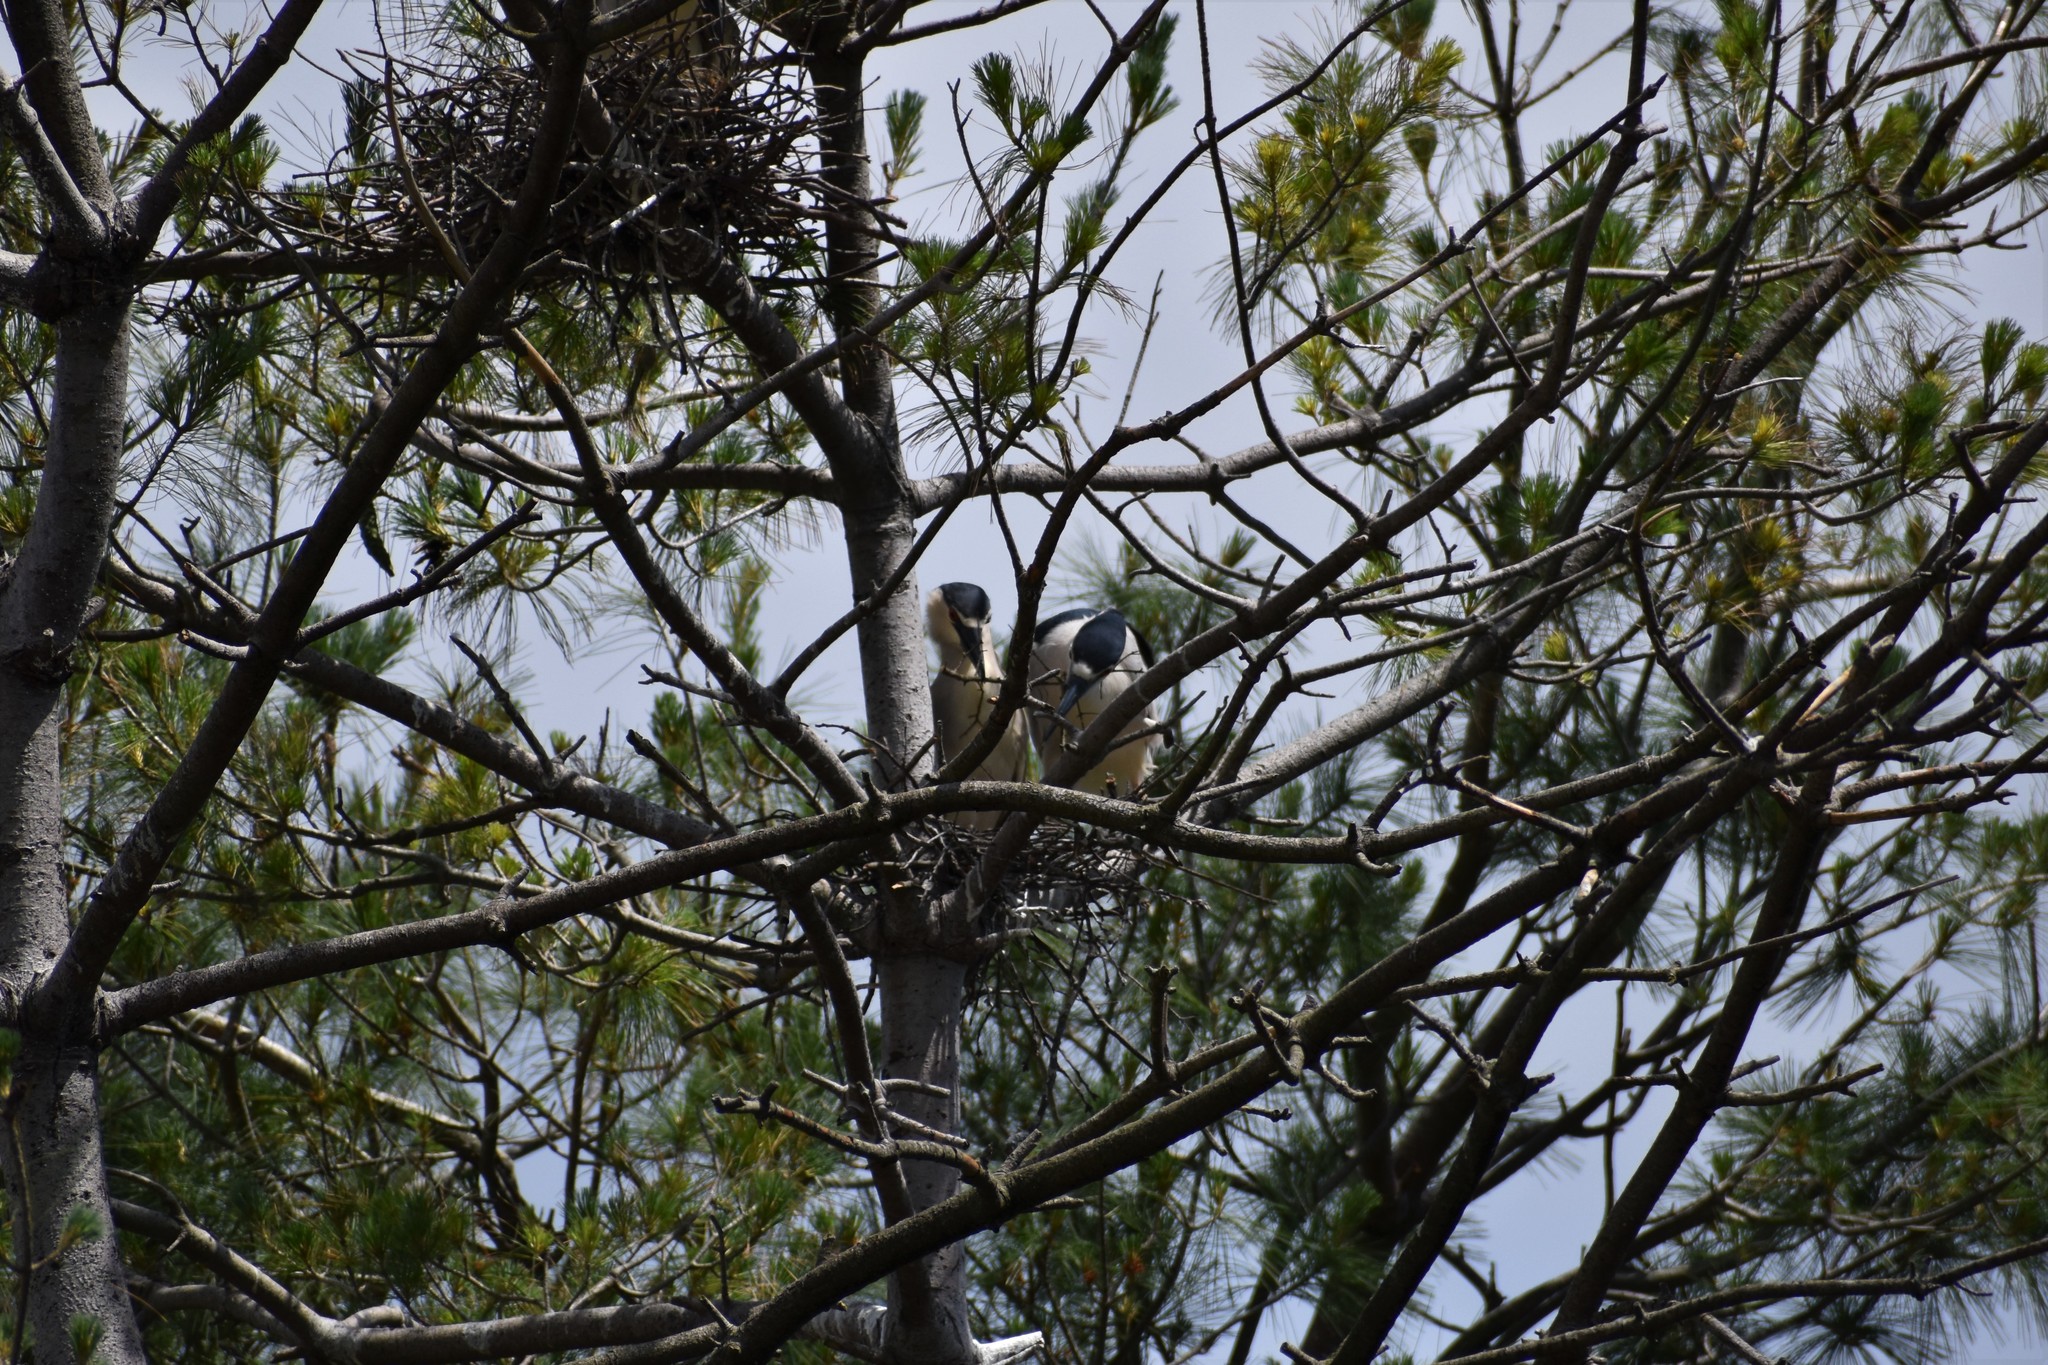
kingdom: Animalia
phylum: Chordata
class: Aves
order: Pelecaniformes
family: Ardeidae
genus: Nycticorax
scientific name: Nycticorax nycticorax
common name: Black-crowned night heron
